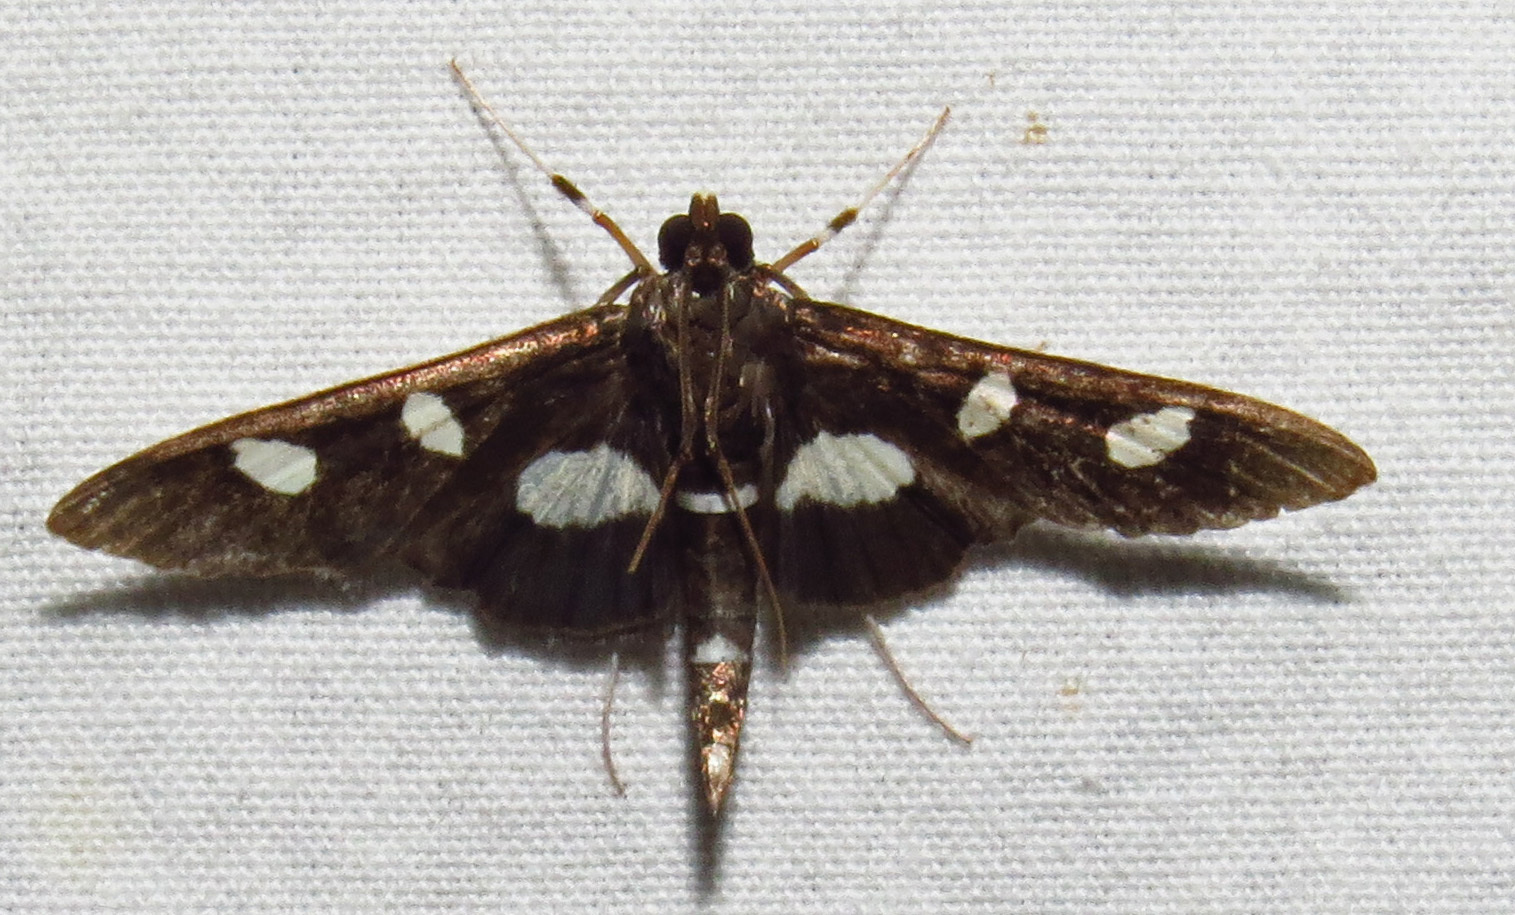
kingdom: Animalia
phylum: Arthropoda
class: Insecta
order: Lepidoptera
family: Crambidae
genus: Desmia
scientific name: Desmia
